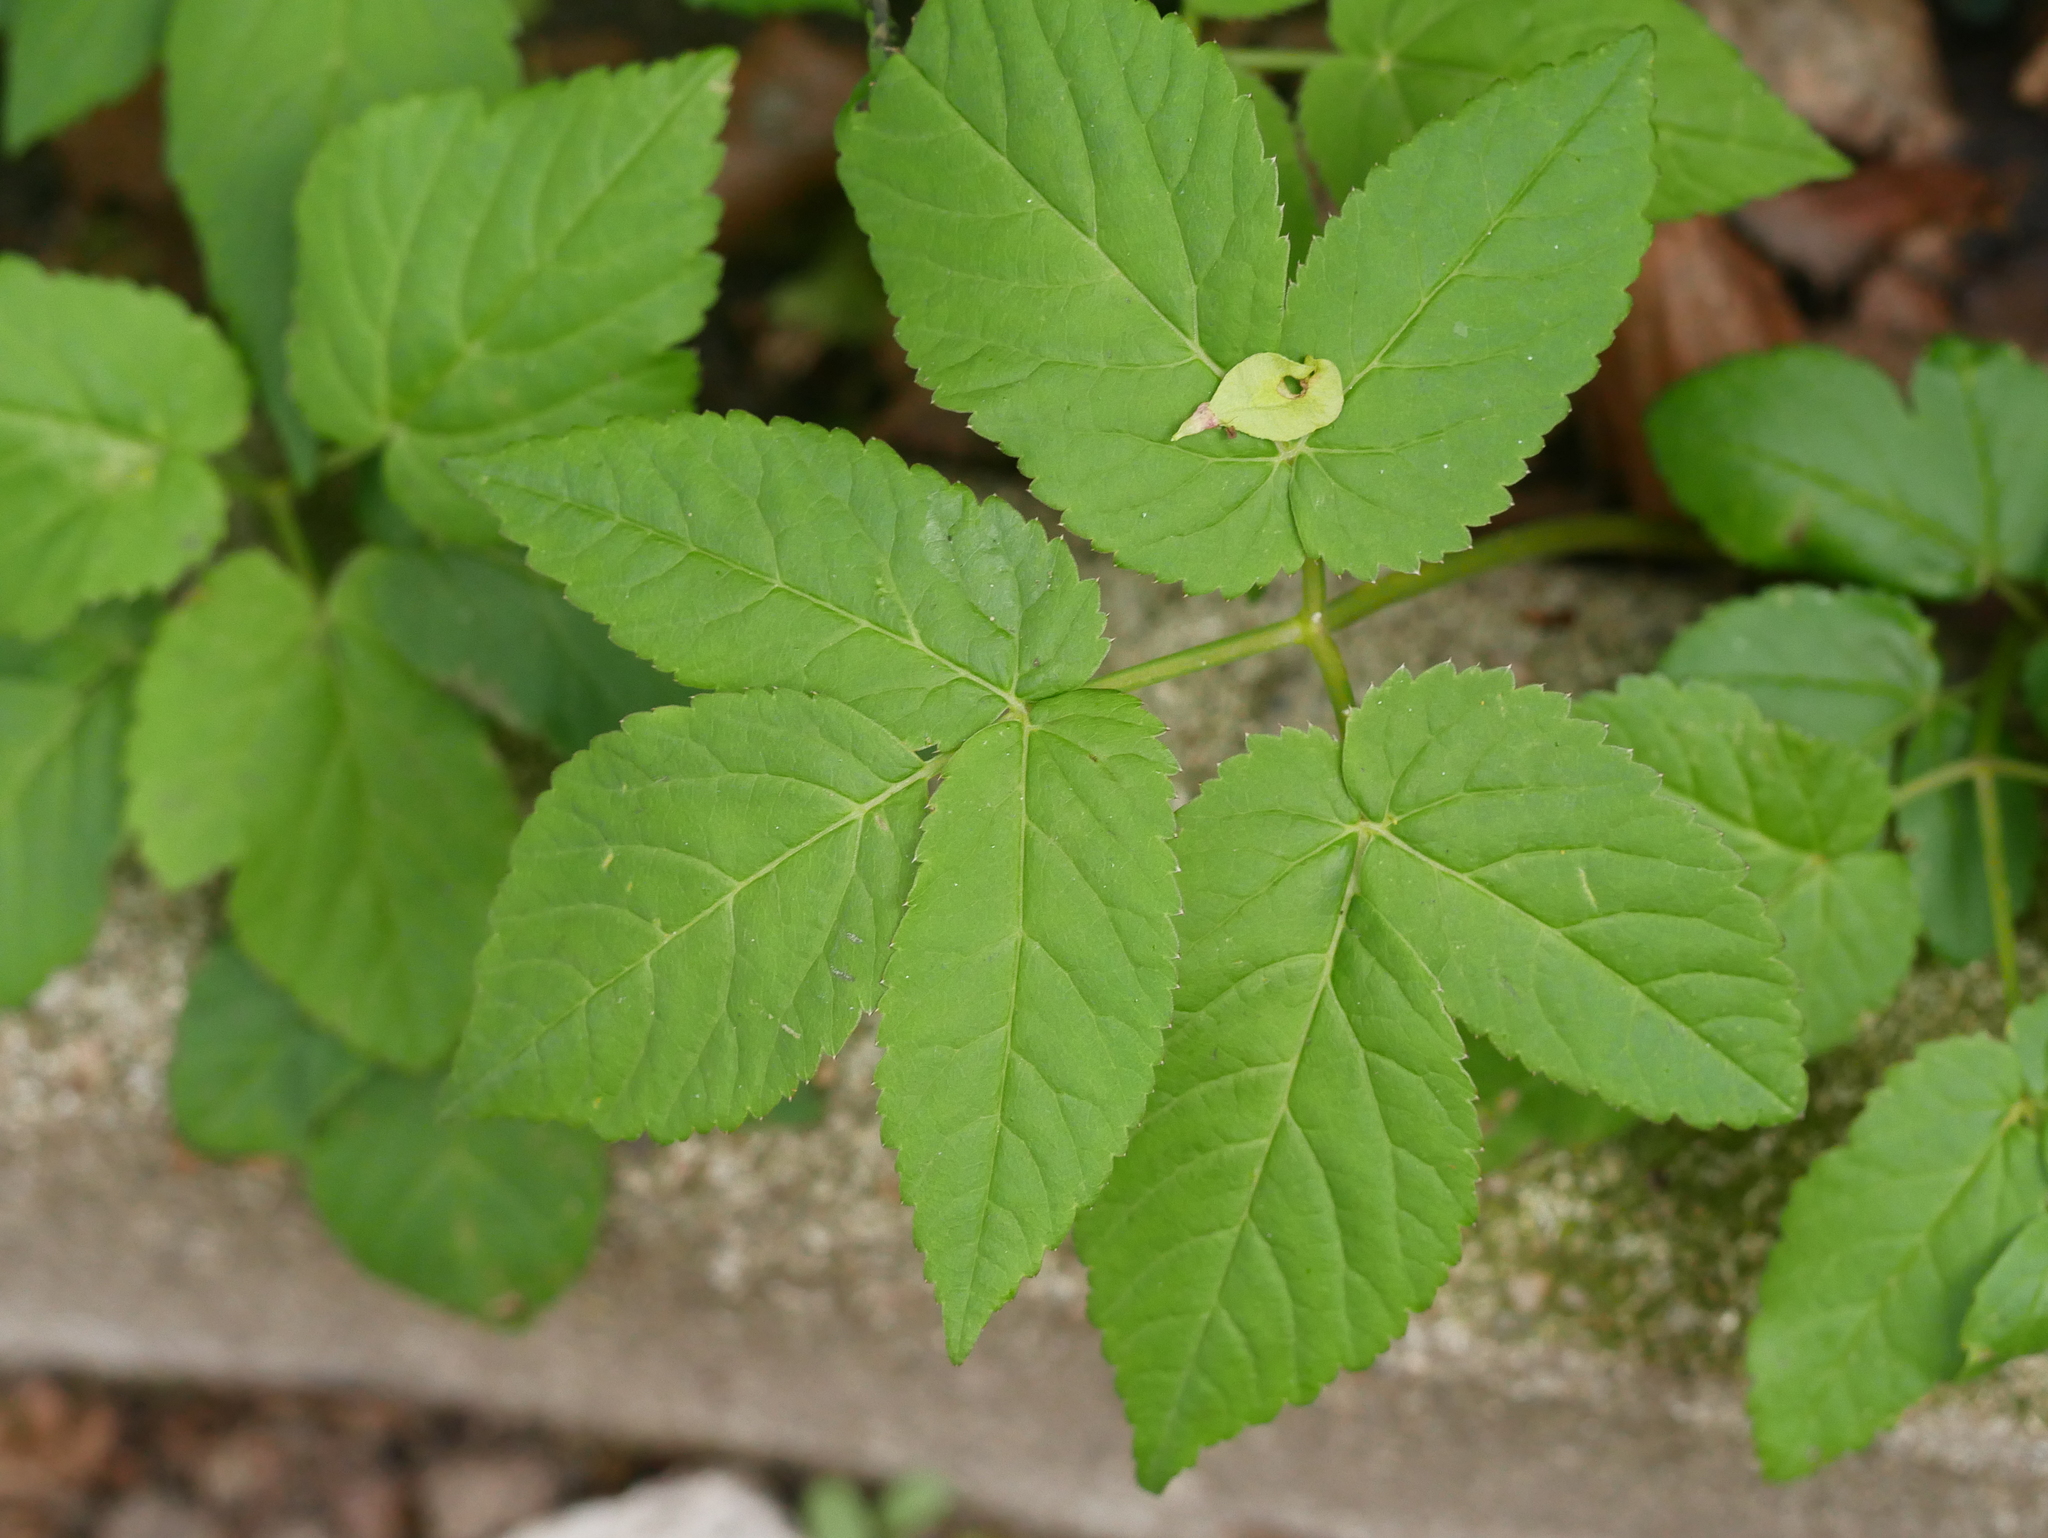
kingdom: Plantae
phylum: Tracheophyta
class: Magnoliopsida
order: Apiales
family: Apiaceae
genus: Aegopodium
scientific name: Aegopodium podagraria
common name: Ground-elder
